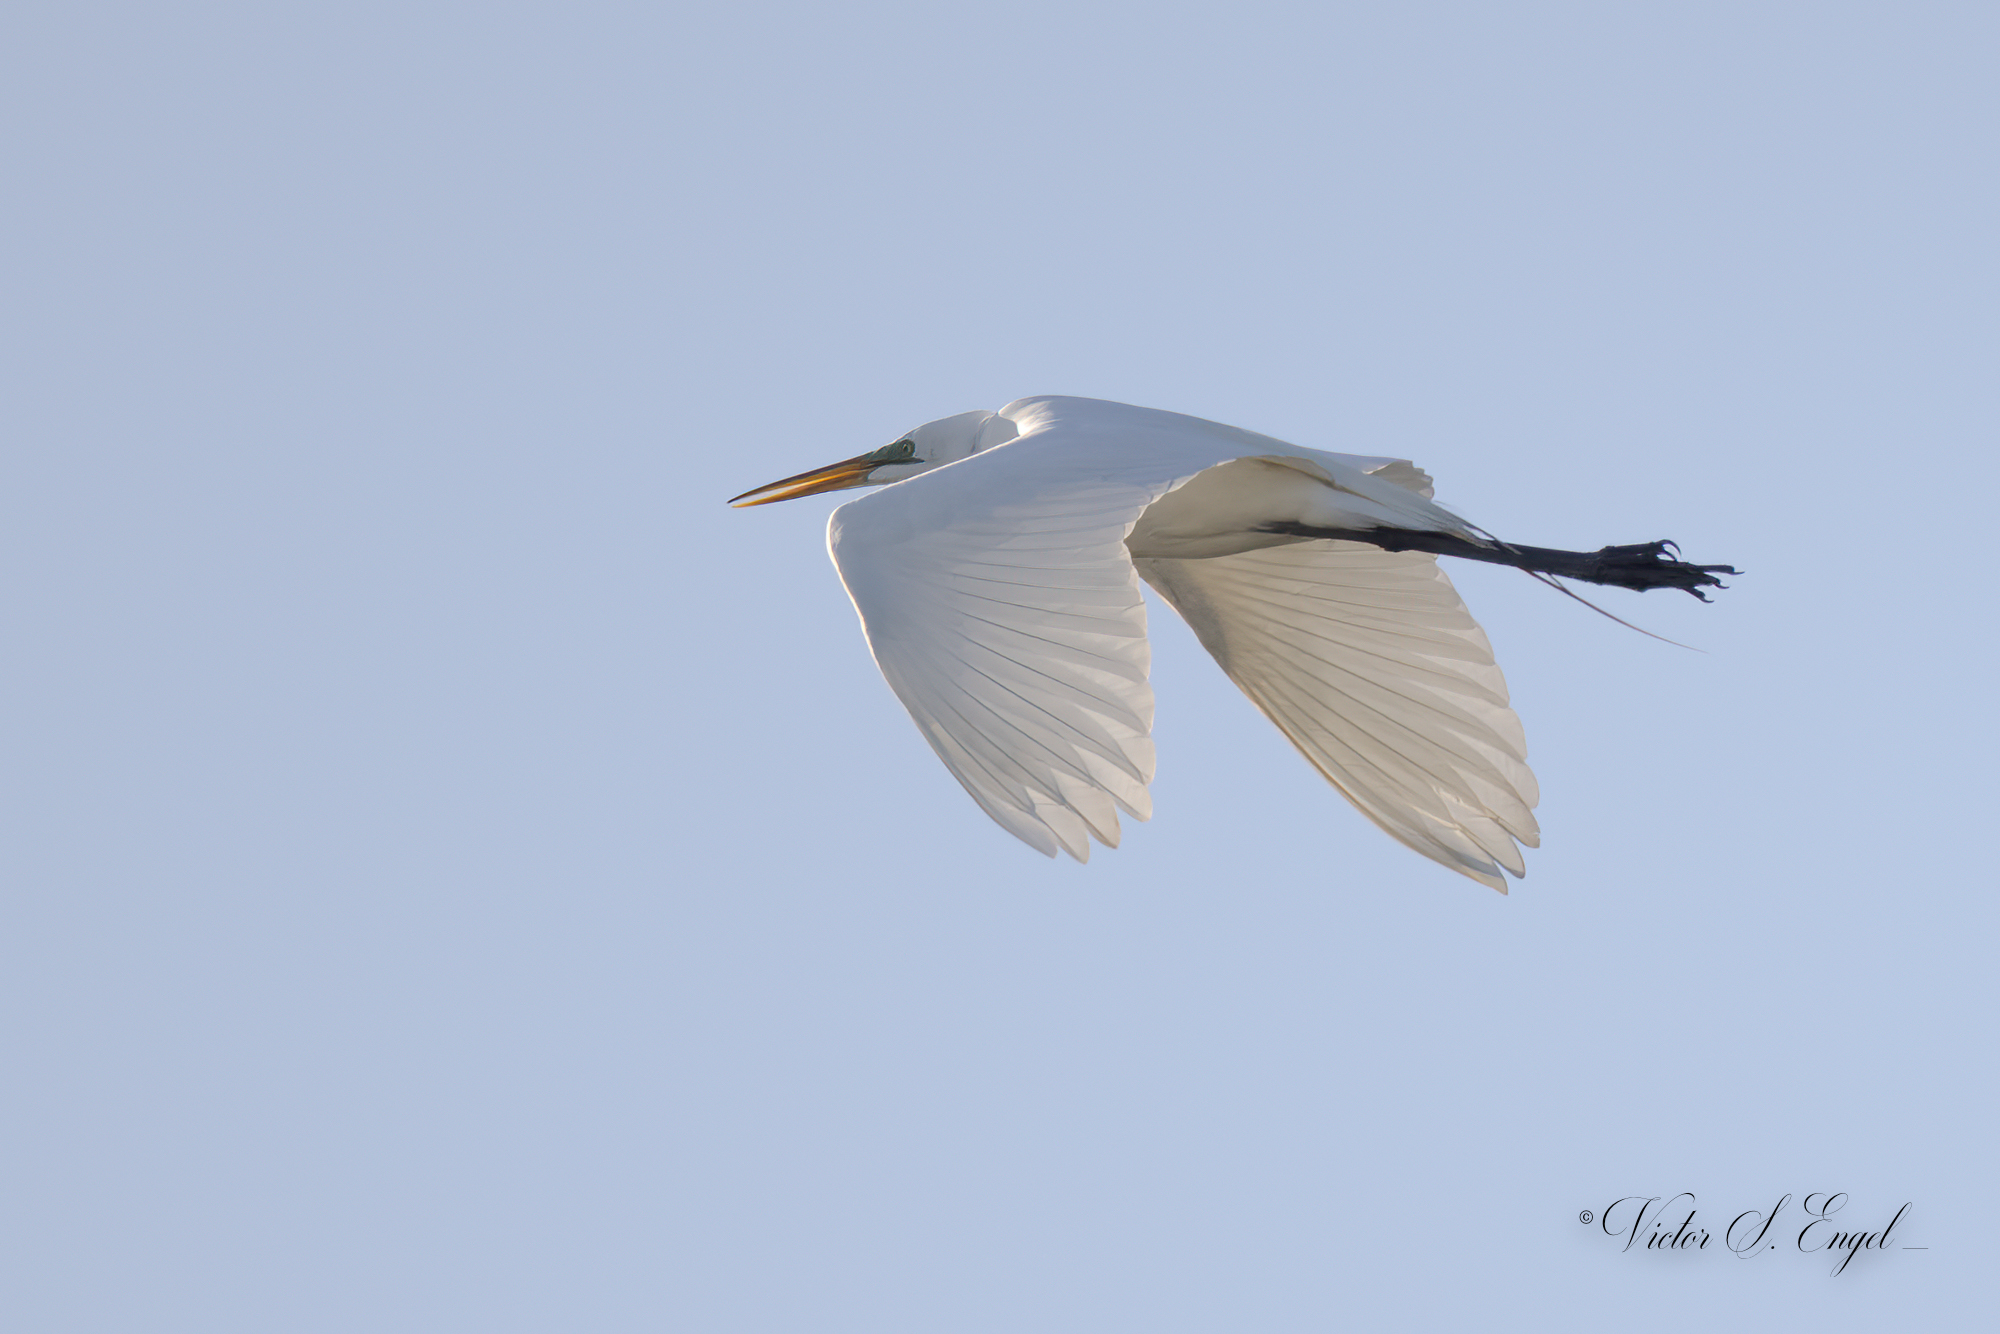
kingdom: Animalia
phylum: Chordata
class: Aves
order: Pelecaniformes
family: Ardeidae
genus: Ardea
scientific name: Ardea alba
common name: Great egret
